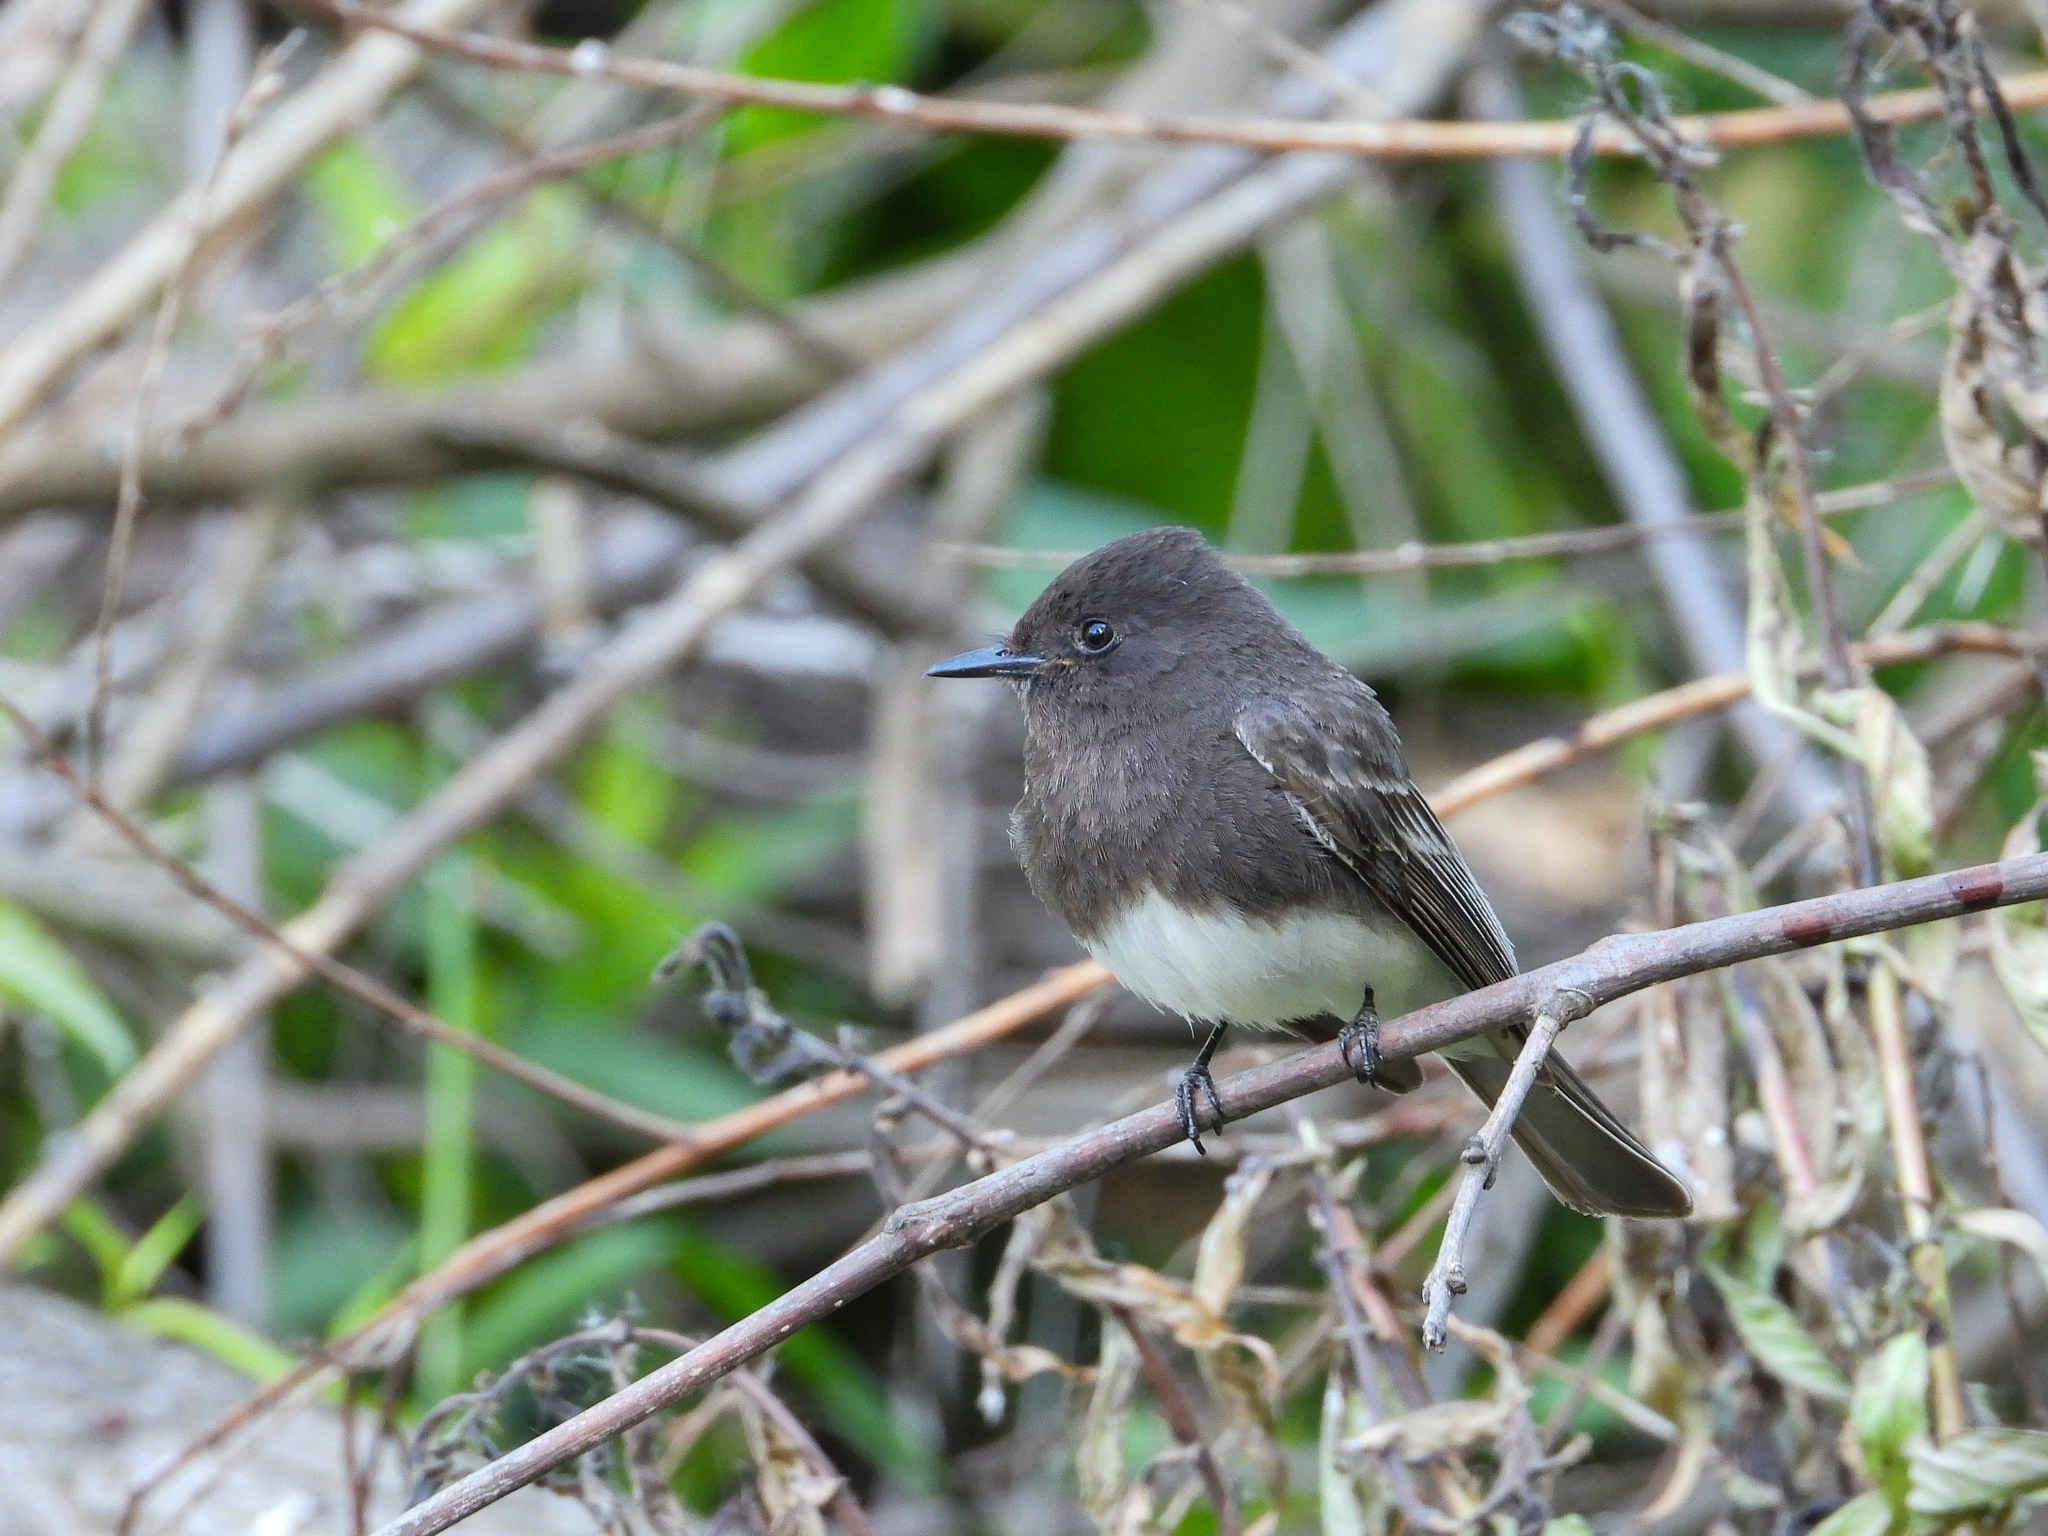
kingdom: Animalia
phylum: Chordata
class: Aves
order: Passeriformes
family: Tyrannidae
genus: Sayornis
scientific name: Sayornis nigricans
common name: Black phoebe
